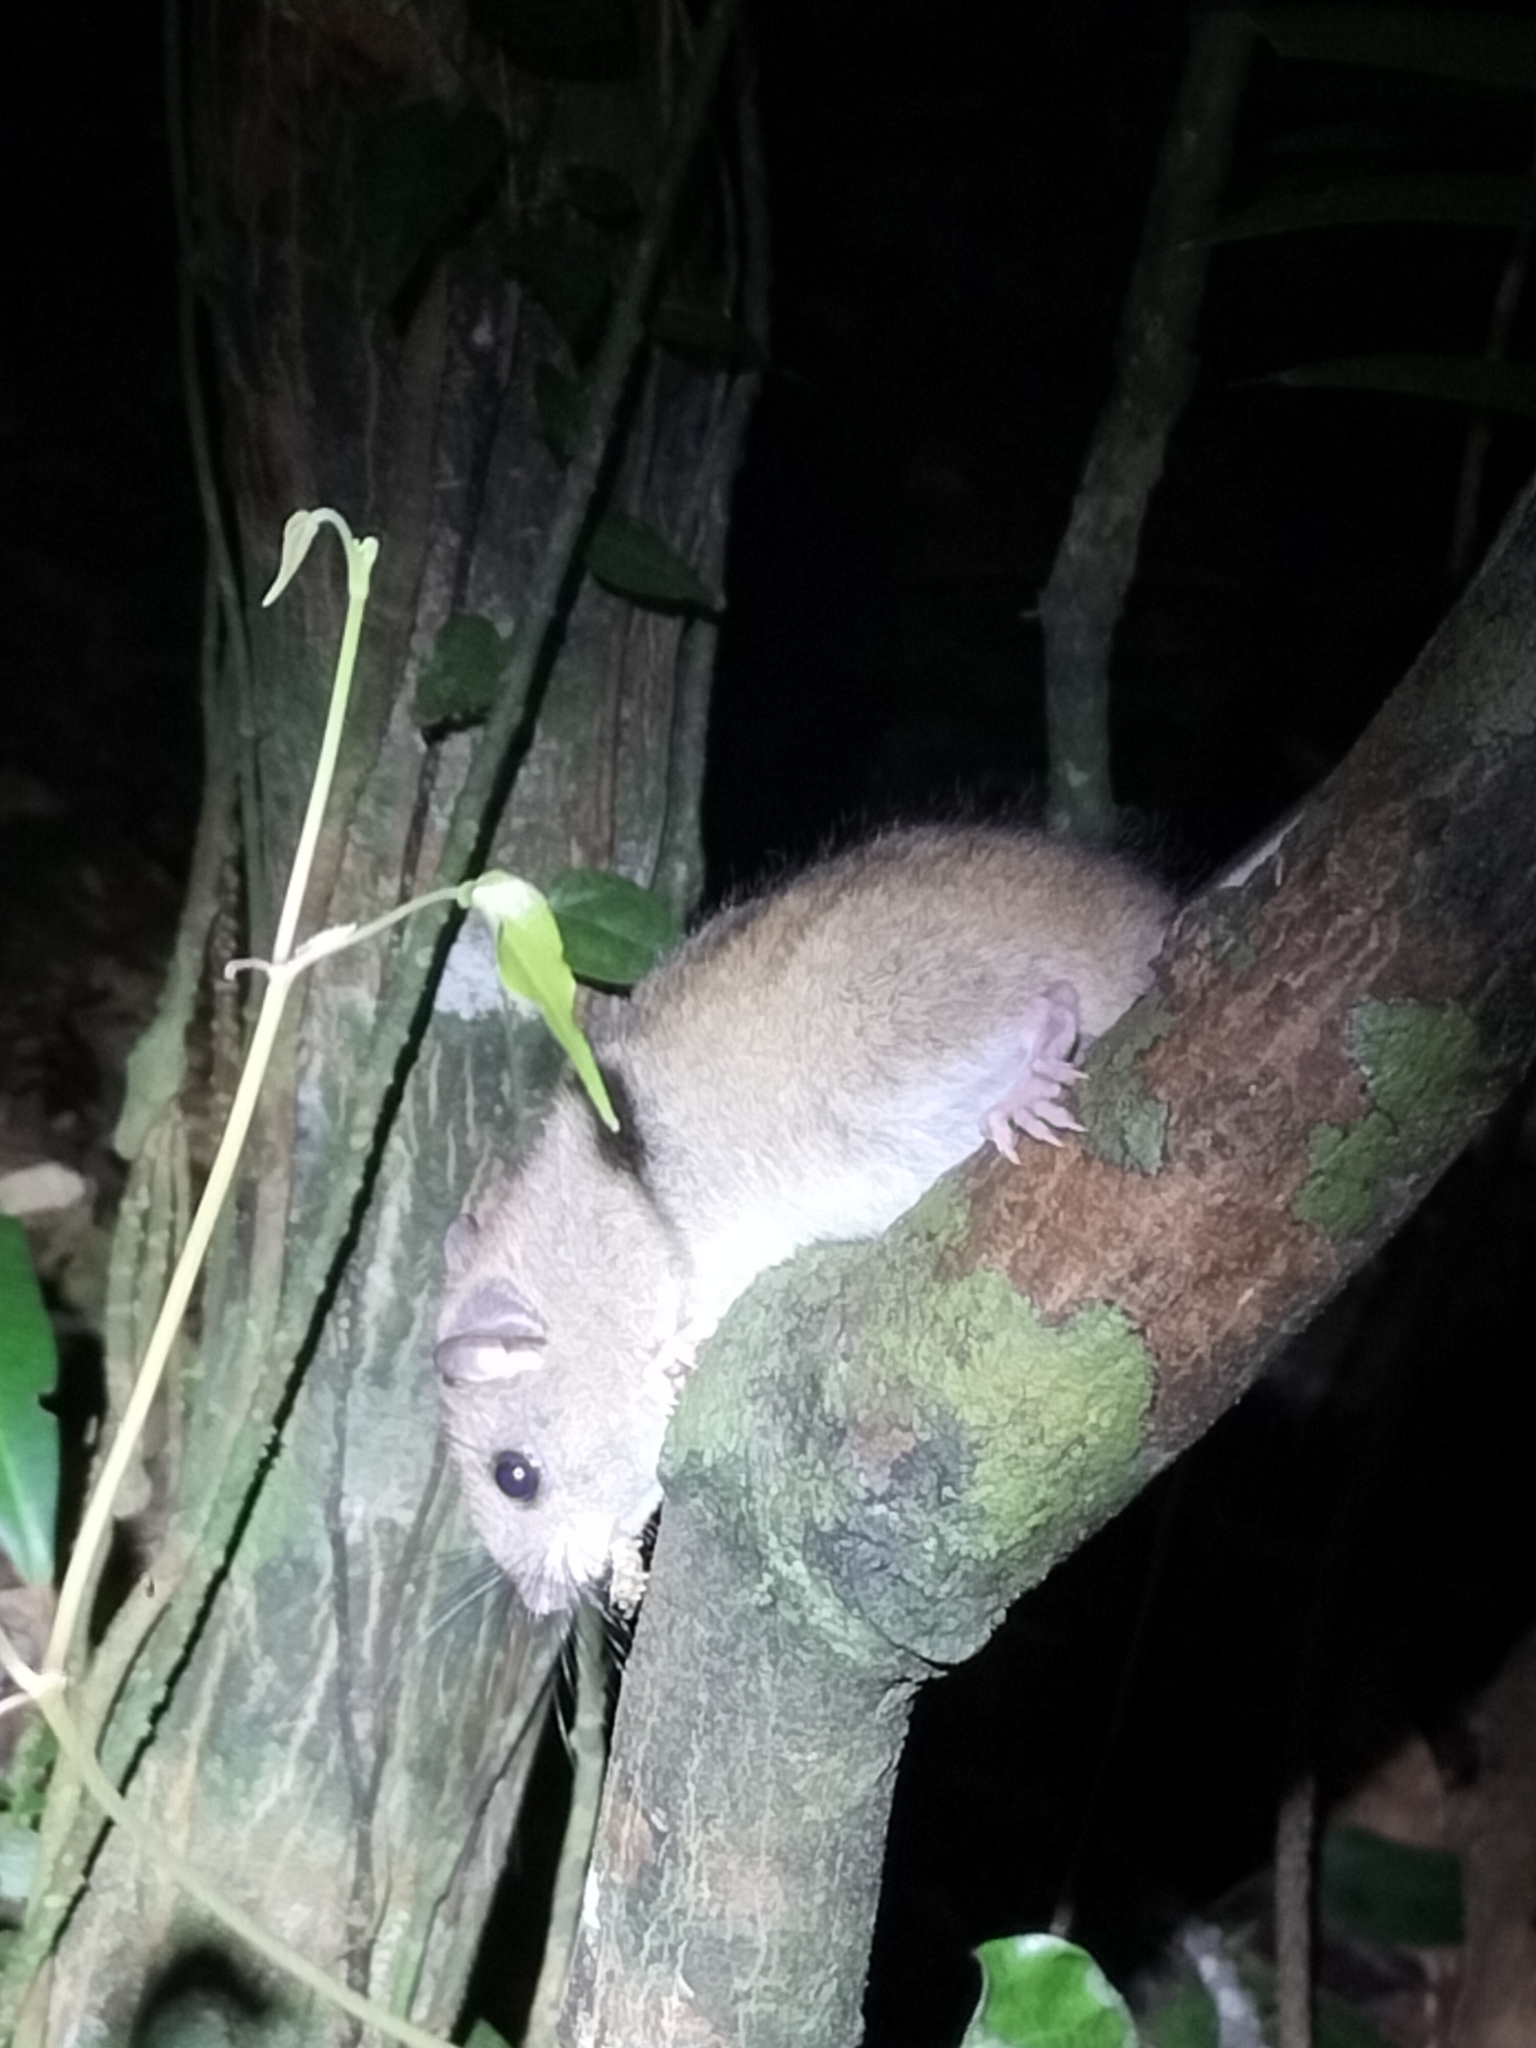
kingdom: Animalia
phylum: Chordata
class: Mammalia
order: Rodentia
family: Muridae
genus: Melomys
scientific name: Melomys cervinipes
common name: Fawn-footed melomys
